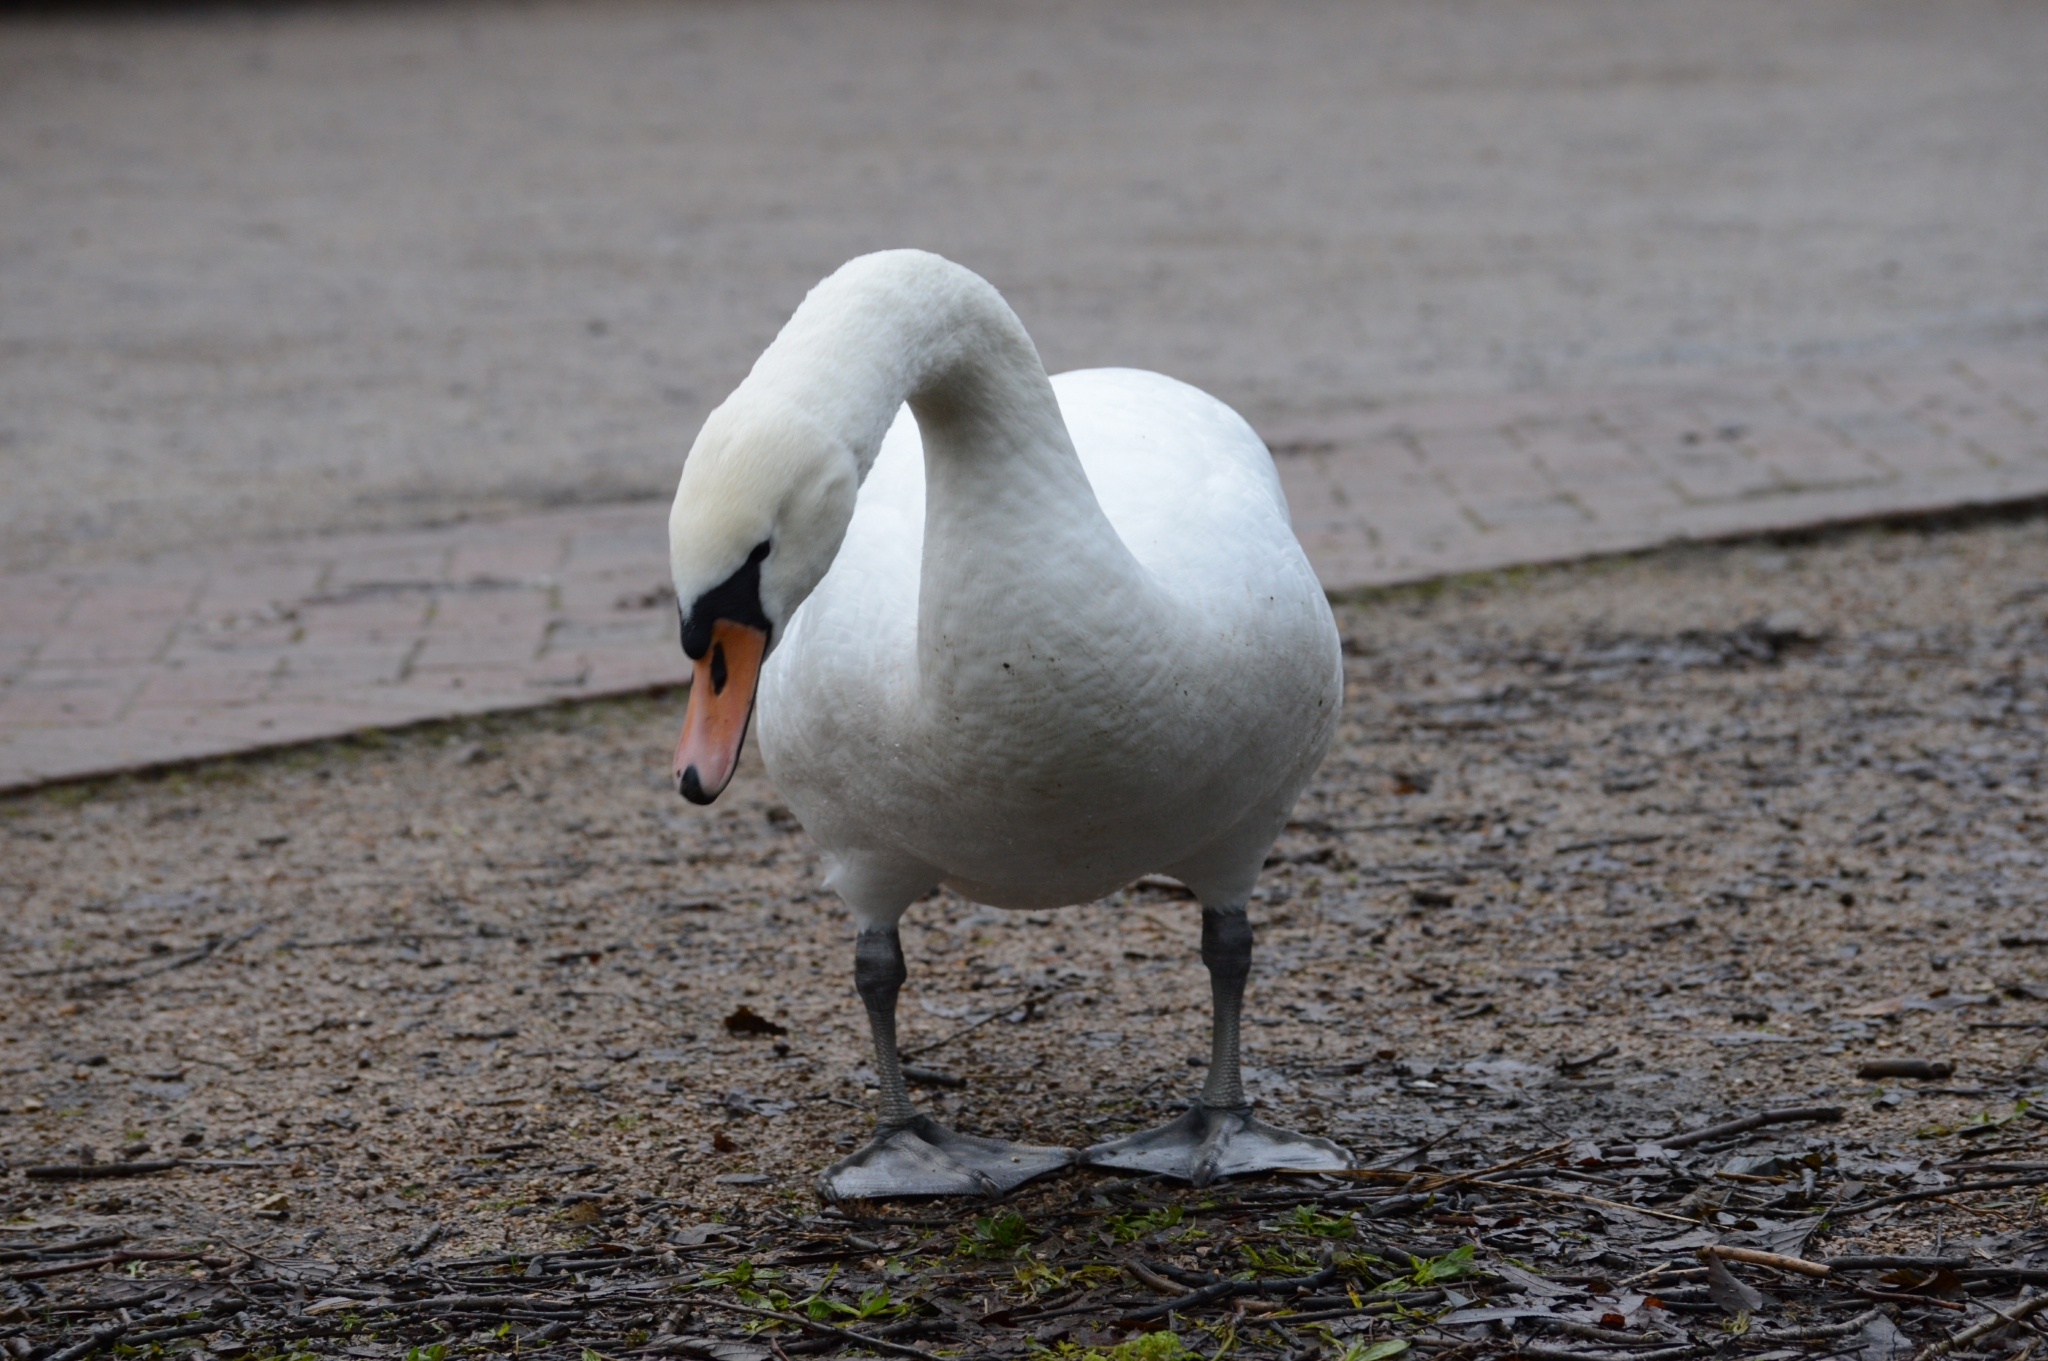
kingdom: Animalia
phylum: Chordata
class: Aves
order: Anseriformes
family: Anatidae
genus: Cygnus
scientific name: Cygnus olor
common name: Mute swan
